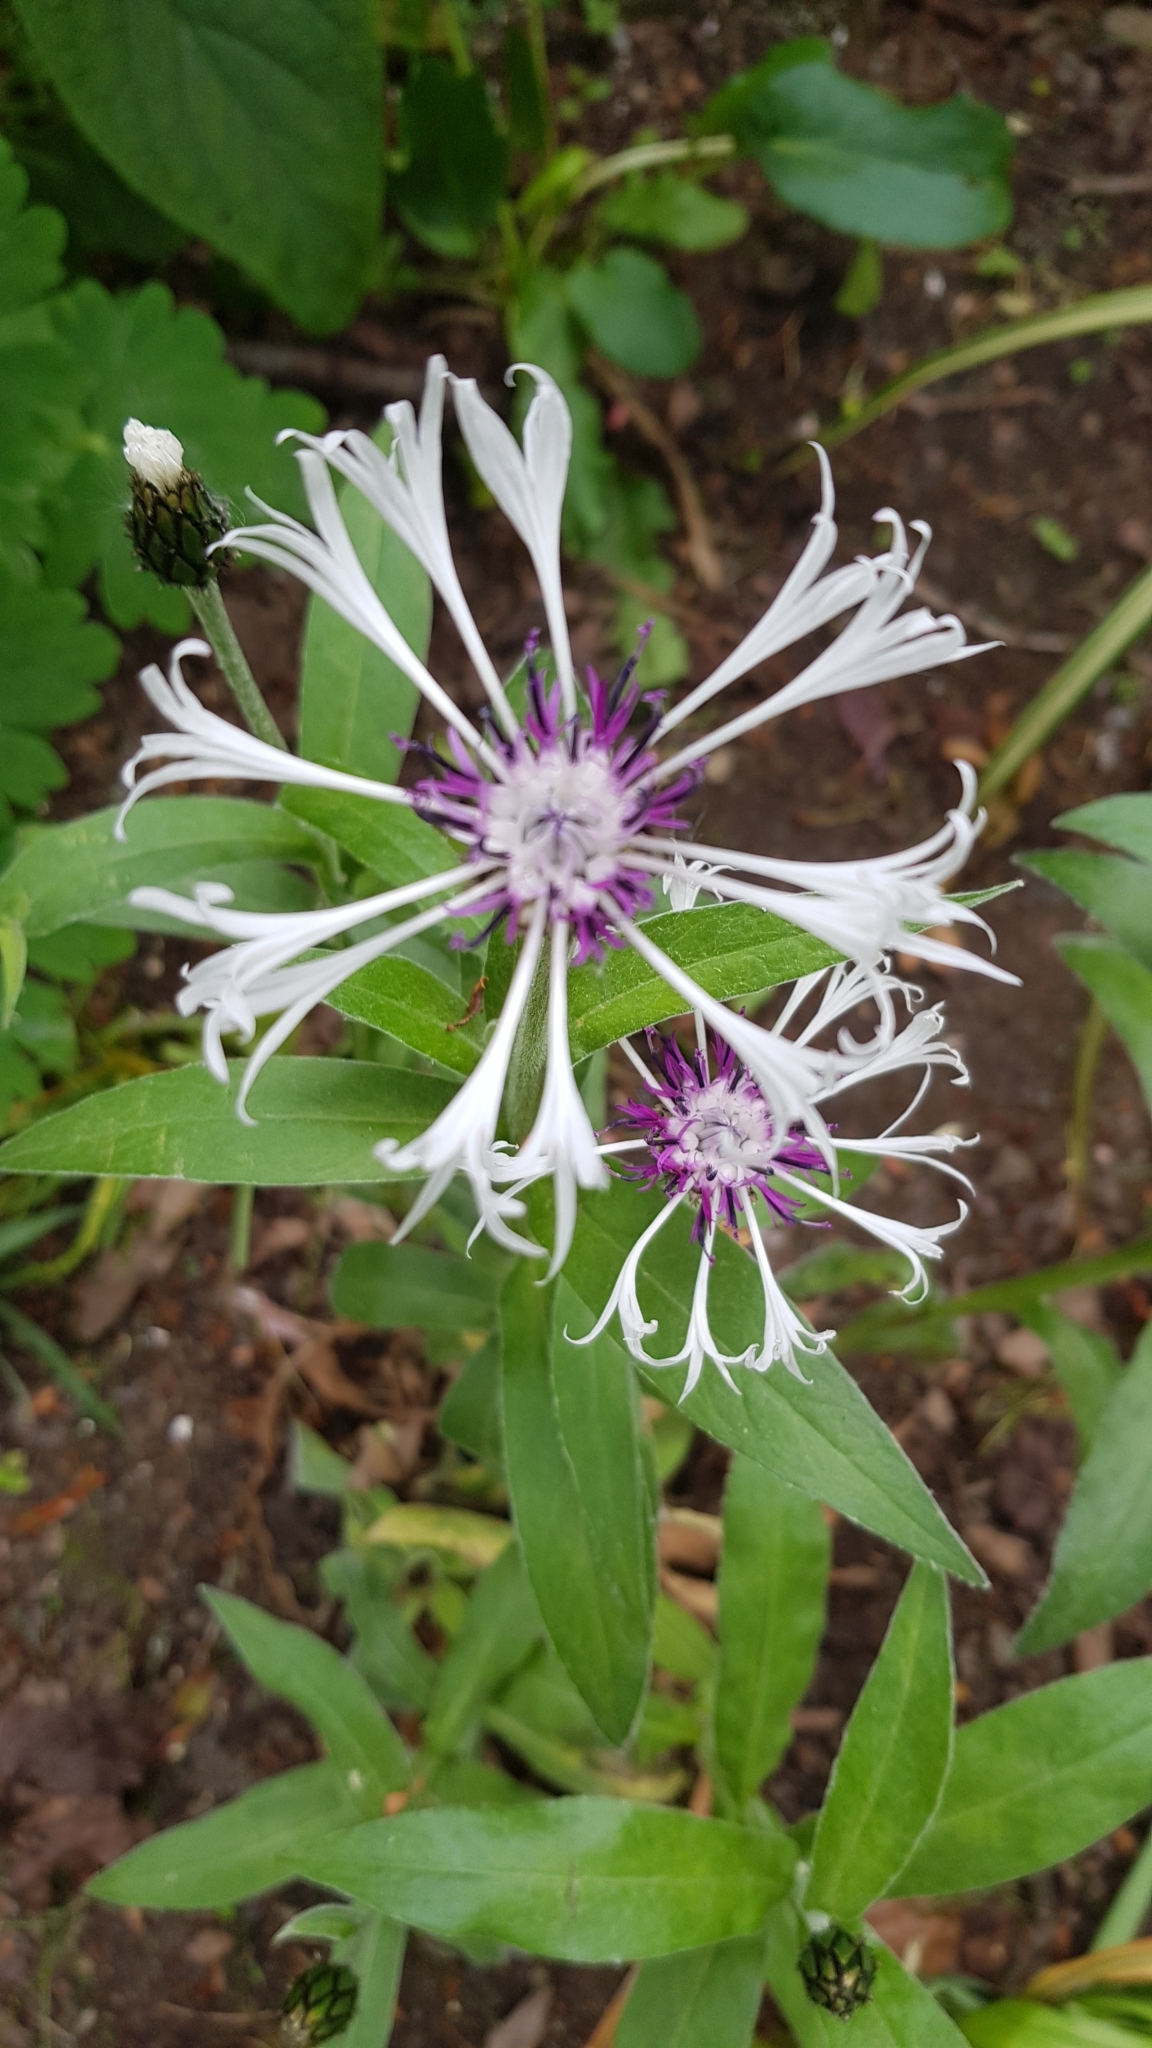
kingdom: Plantae
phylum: Tracheophyta
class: Magnoliopsida
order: Asterales
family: Asteraceae
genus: Centaurea
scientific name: Centaurea montana
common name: Perennial cornflower
